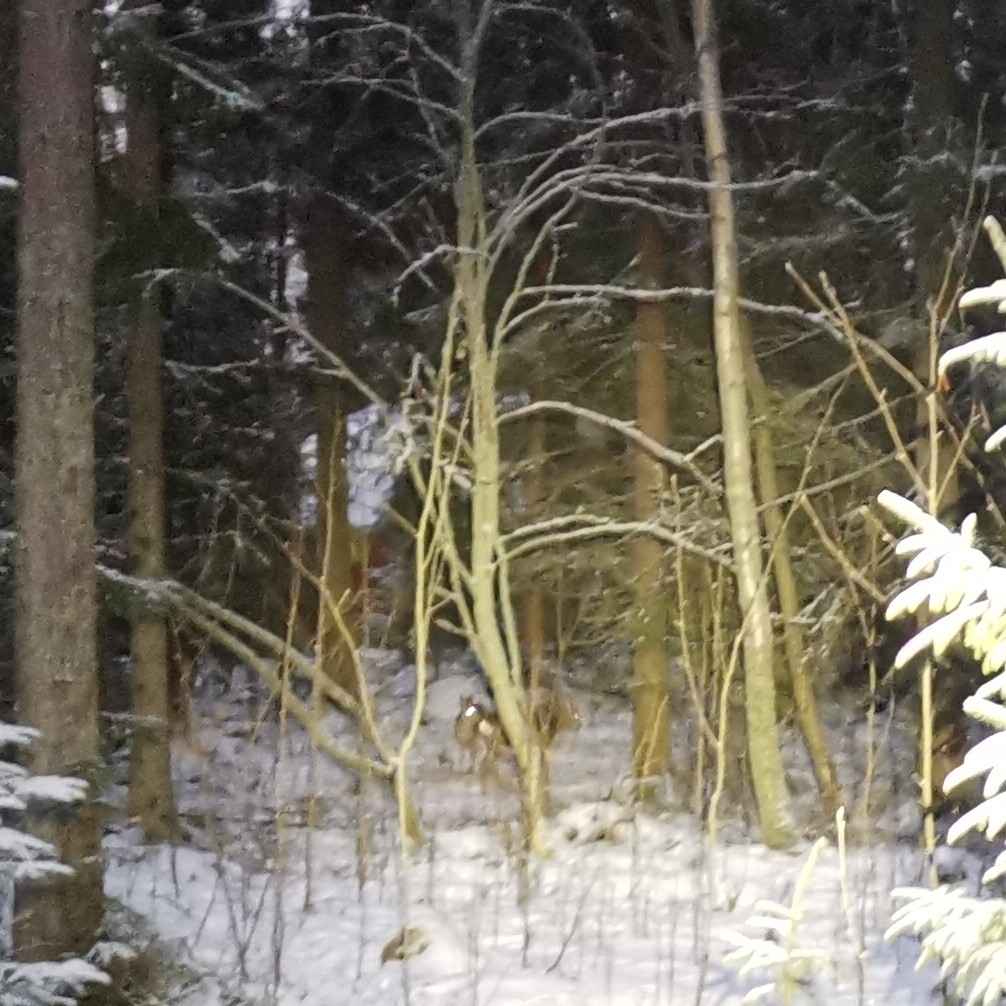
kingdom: Animalia
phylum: Chordata
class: Mammalia
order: Artiodactyla
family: Cervidae
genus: Capreolus
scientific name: Capreolus capreolus
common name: Western roe deer
